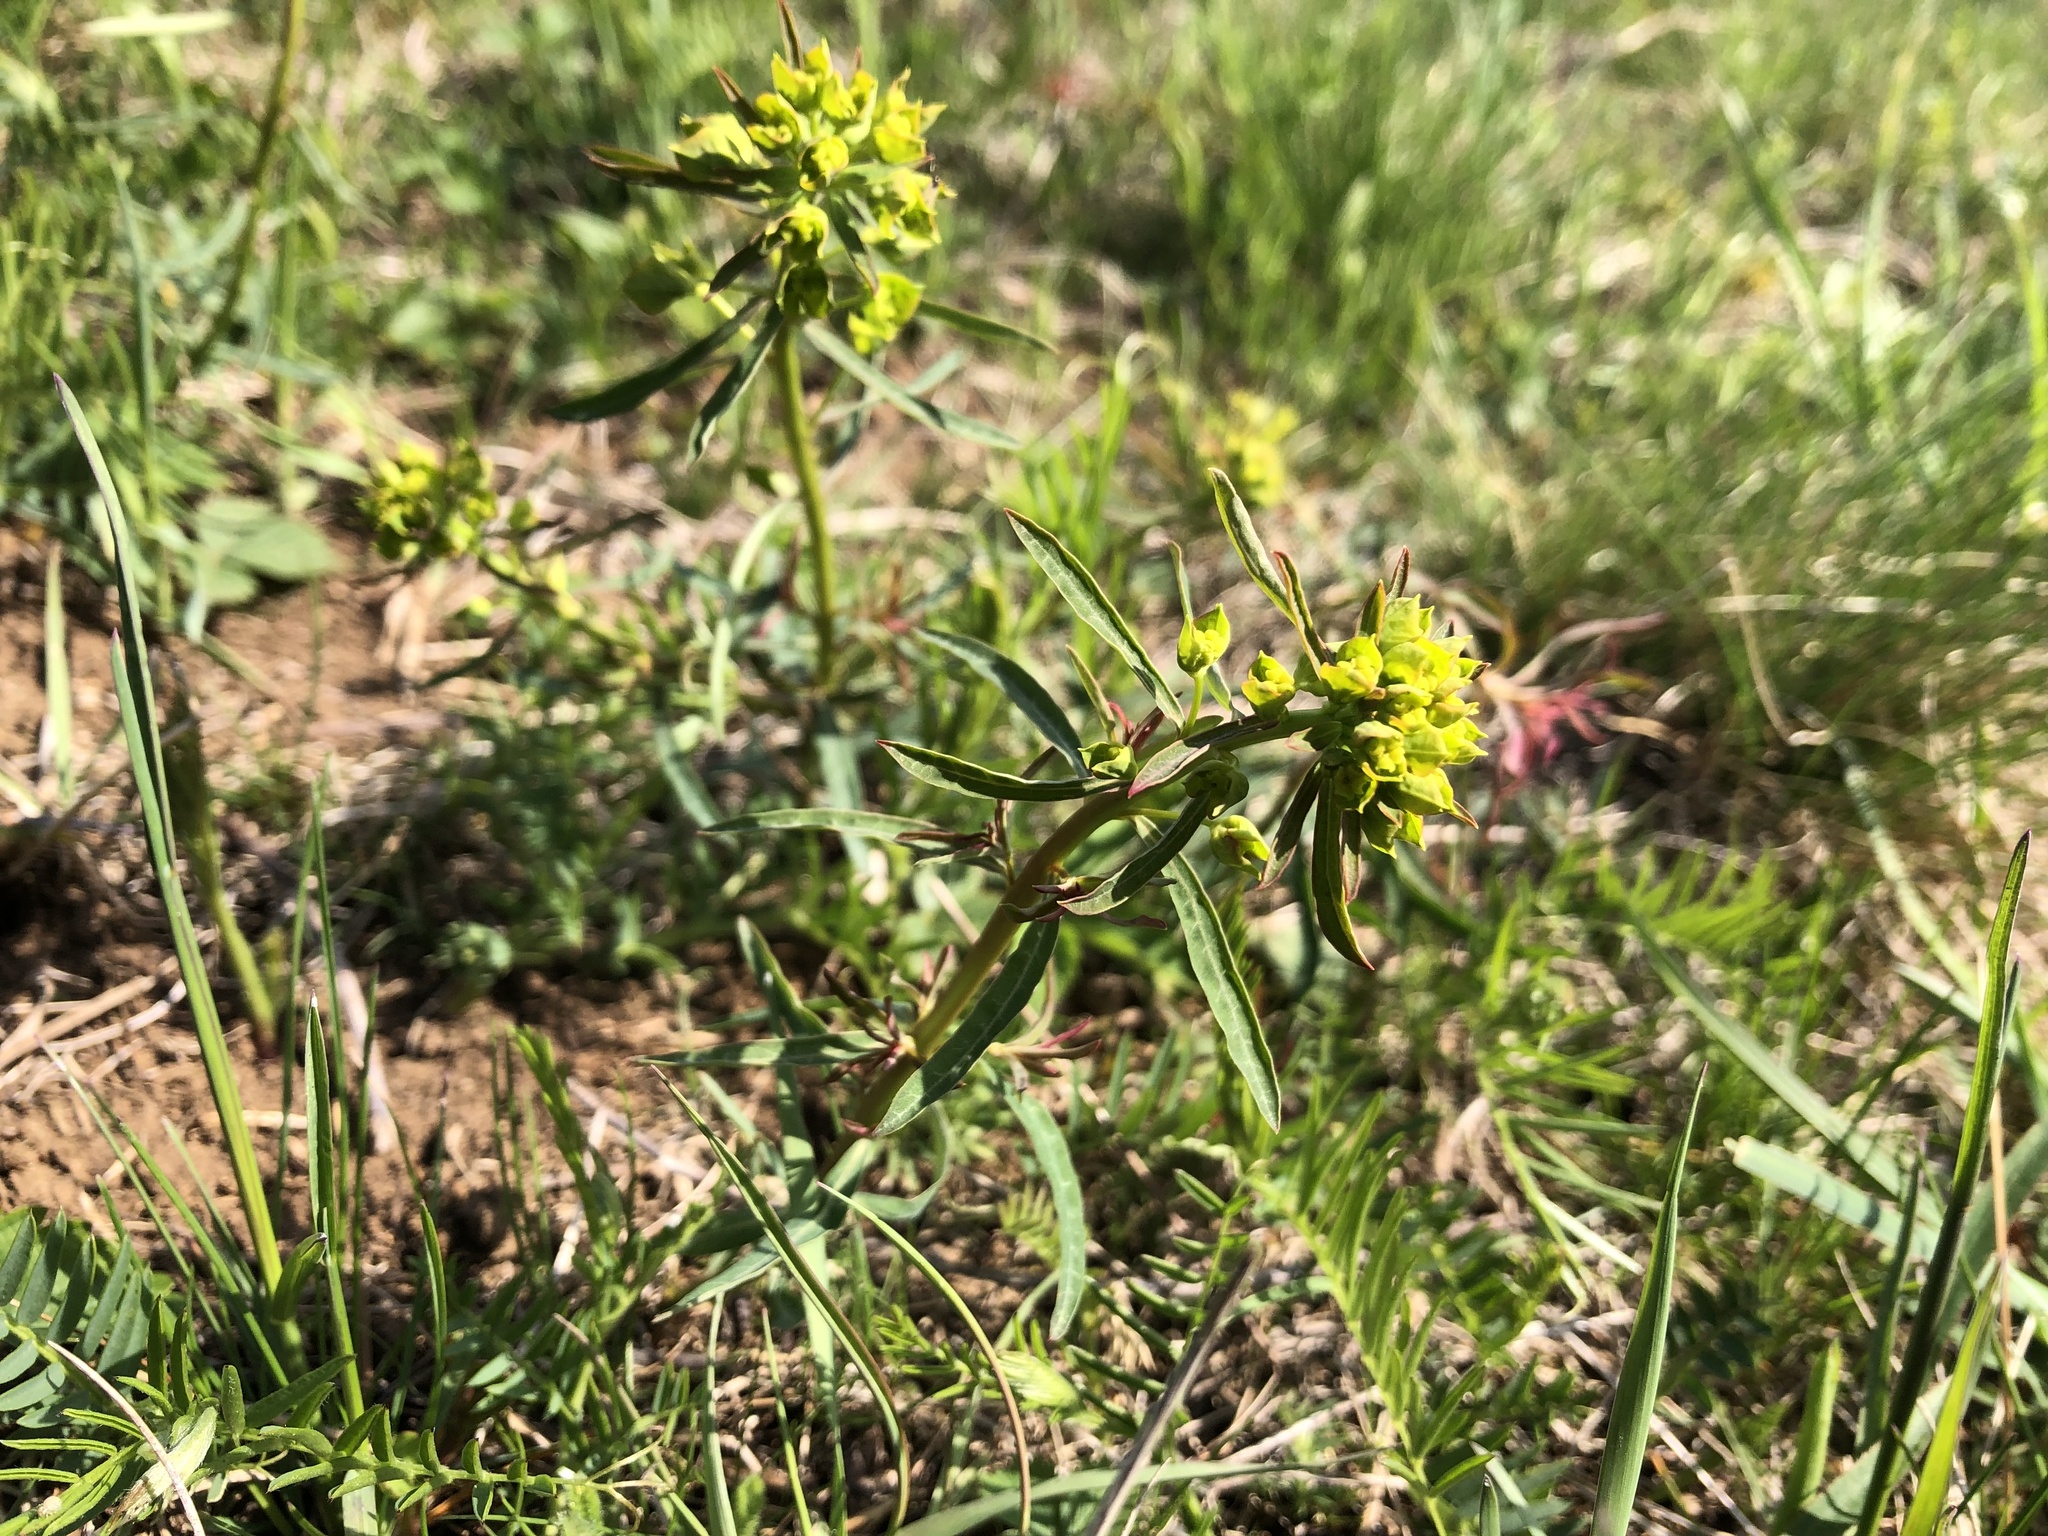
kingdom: Plantae
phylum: Tracheophyta
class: Magnoliopsida
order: Malpighiales
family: Euphorbiaceae
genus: Euphorbia
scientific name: Euphorbia esula
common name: Leafy spurge
